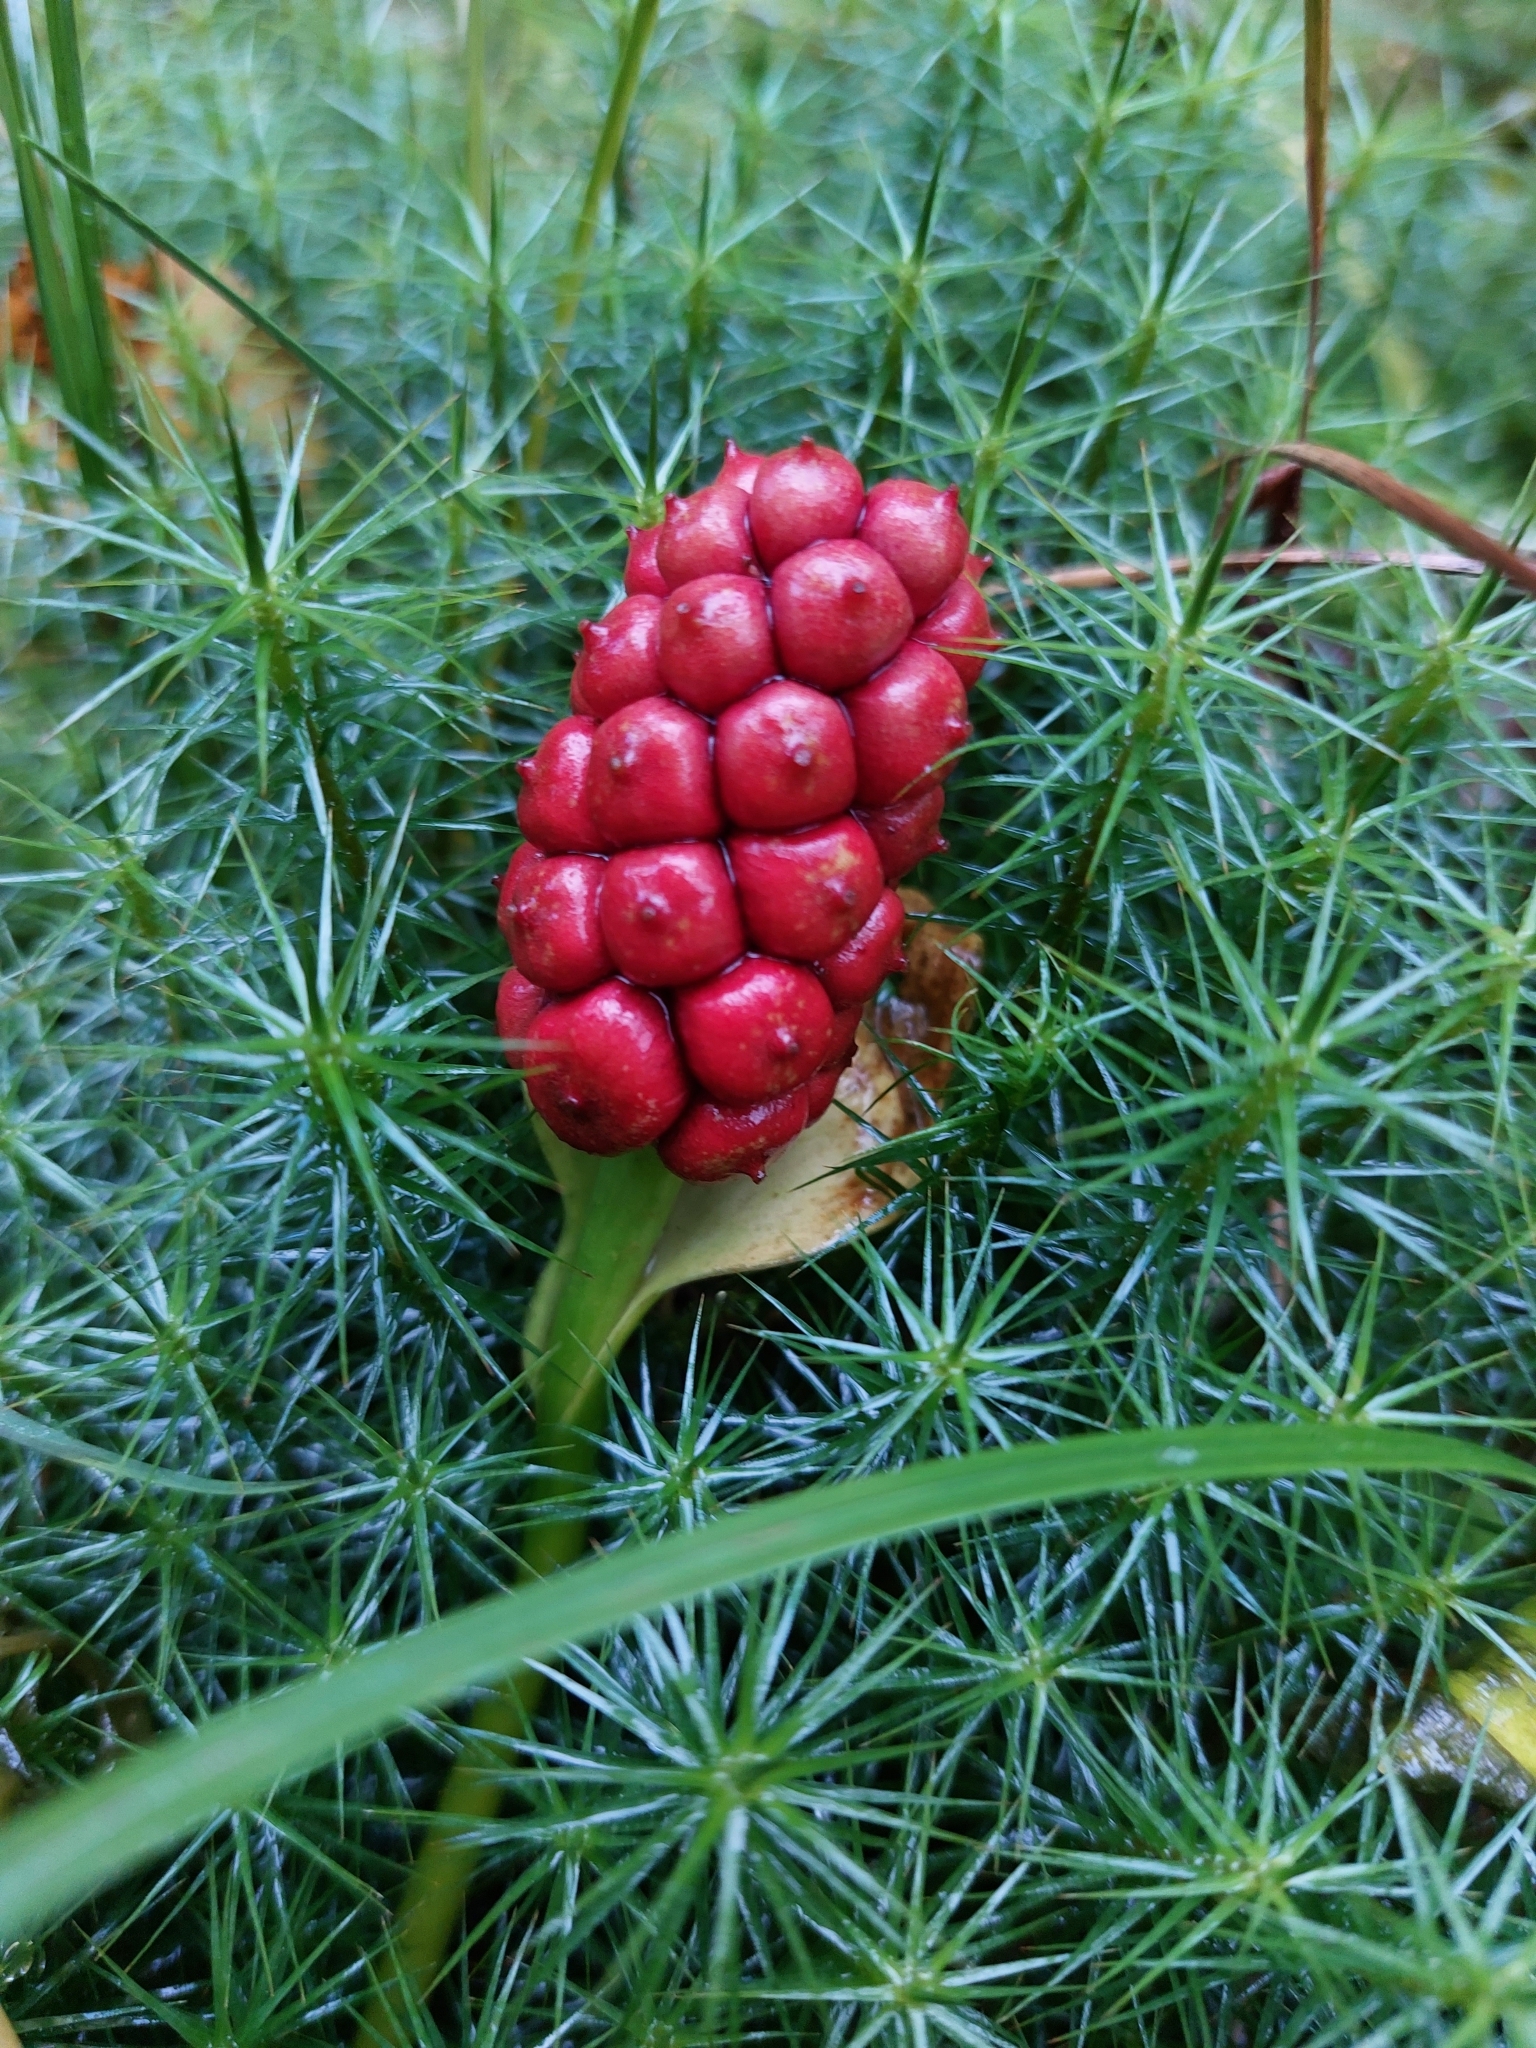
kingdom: Plantae
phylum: Tracheophyta
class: Liliopsida
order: Alismatales
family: Araceae
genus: Calla
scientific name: Calla palustris
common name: Bog arum
